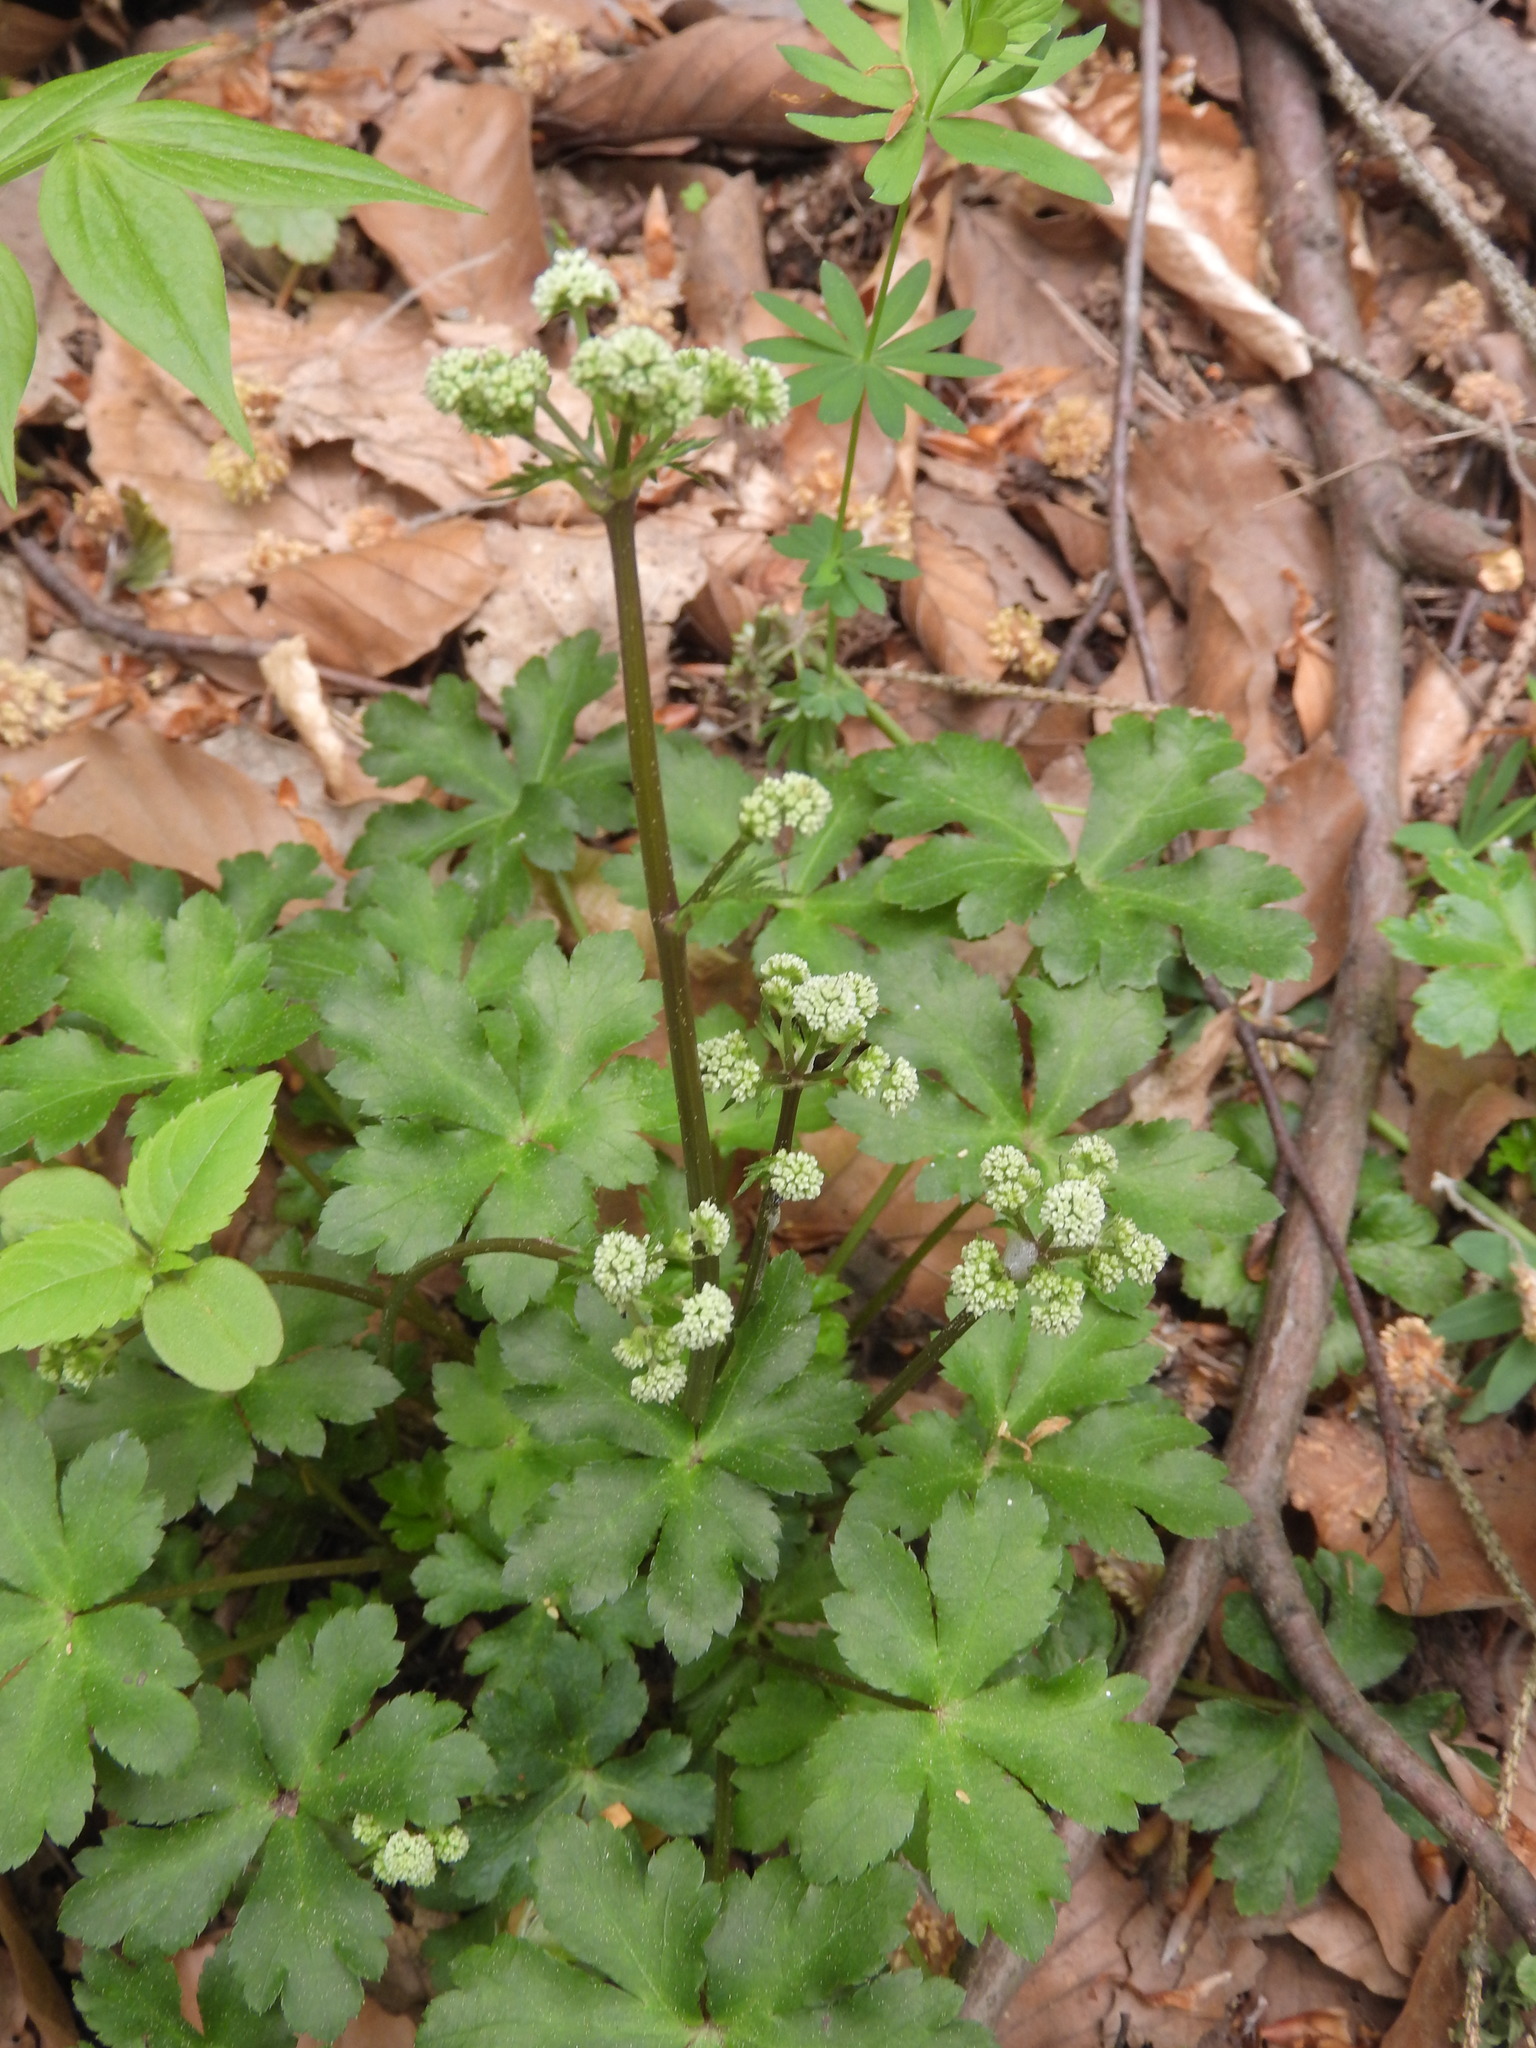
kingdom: Plantae
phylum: Tracheophyta
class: Magnoliopsida
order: Apiales
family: Apiaceae
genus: Sanicula
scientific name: Sanicula europaea
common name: Sanicle
